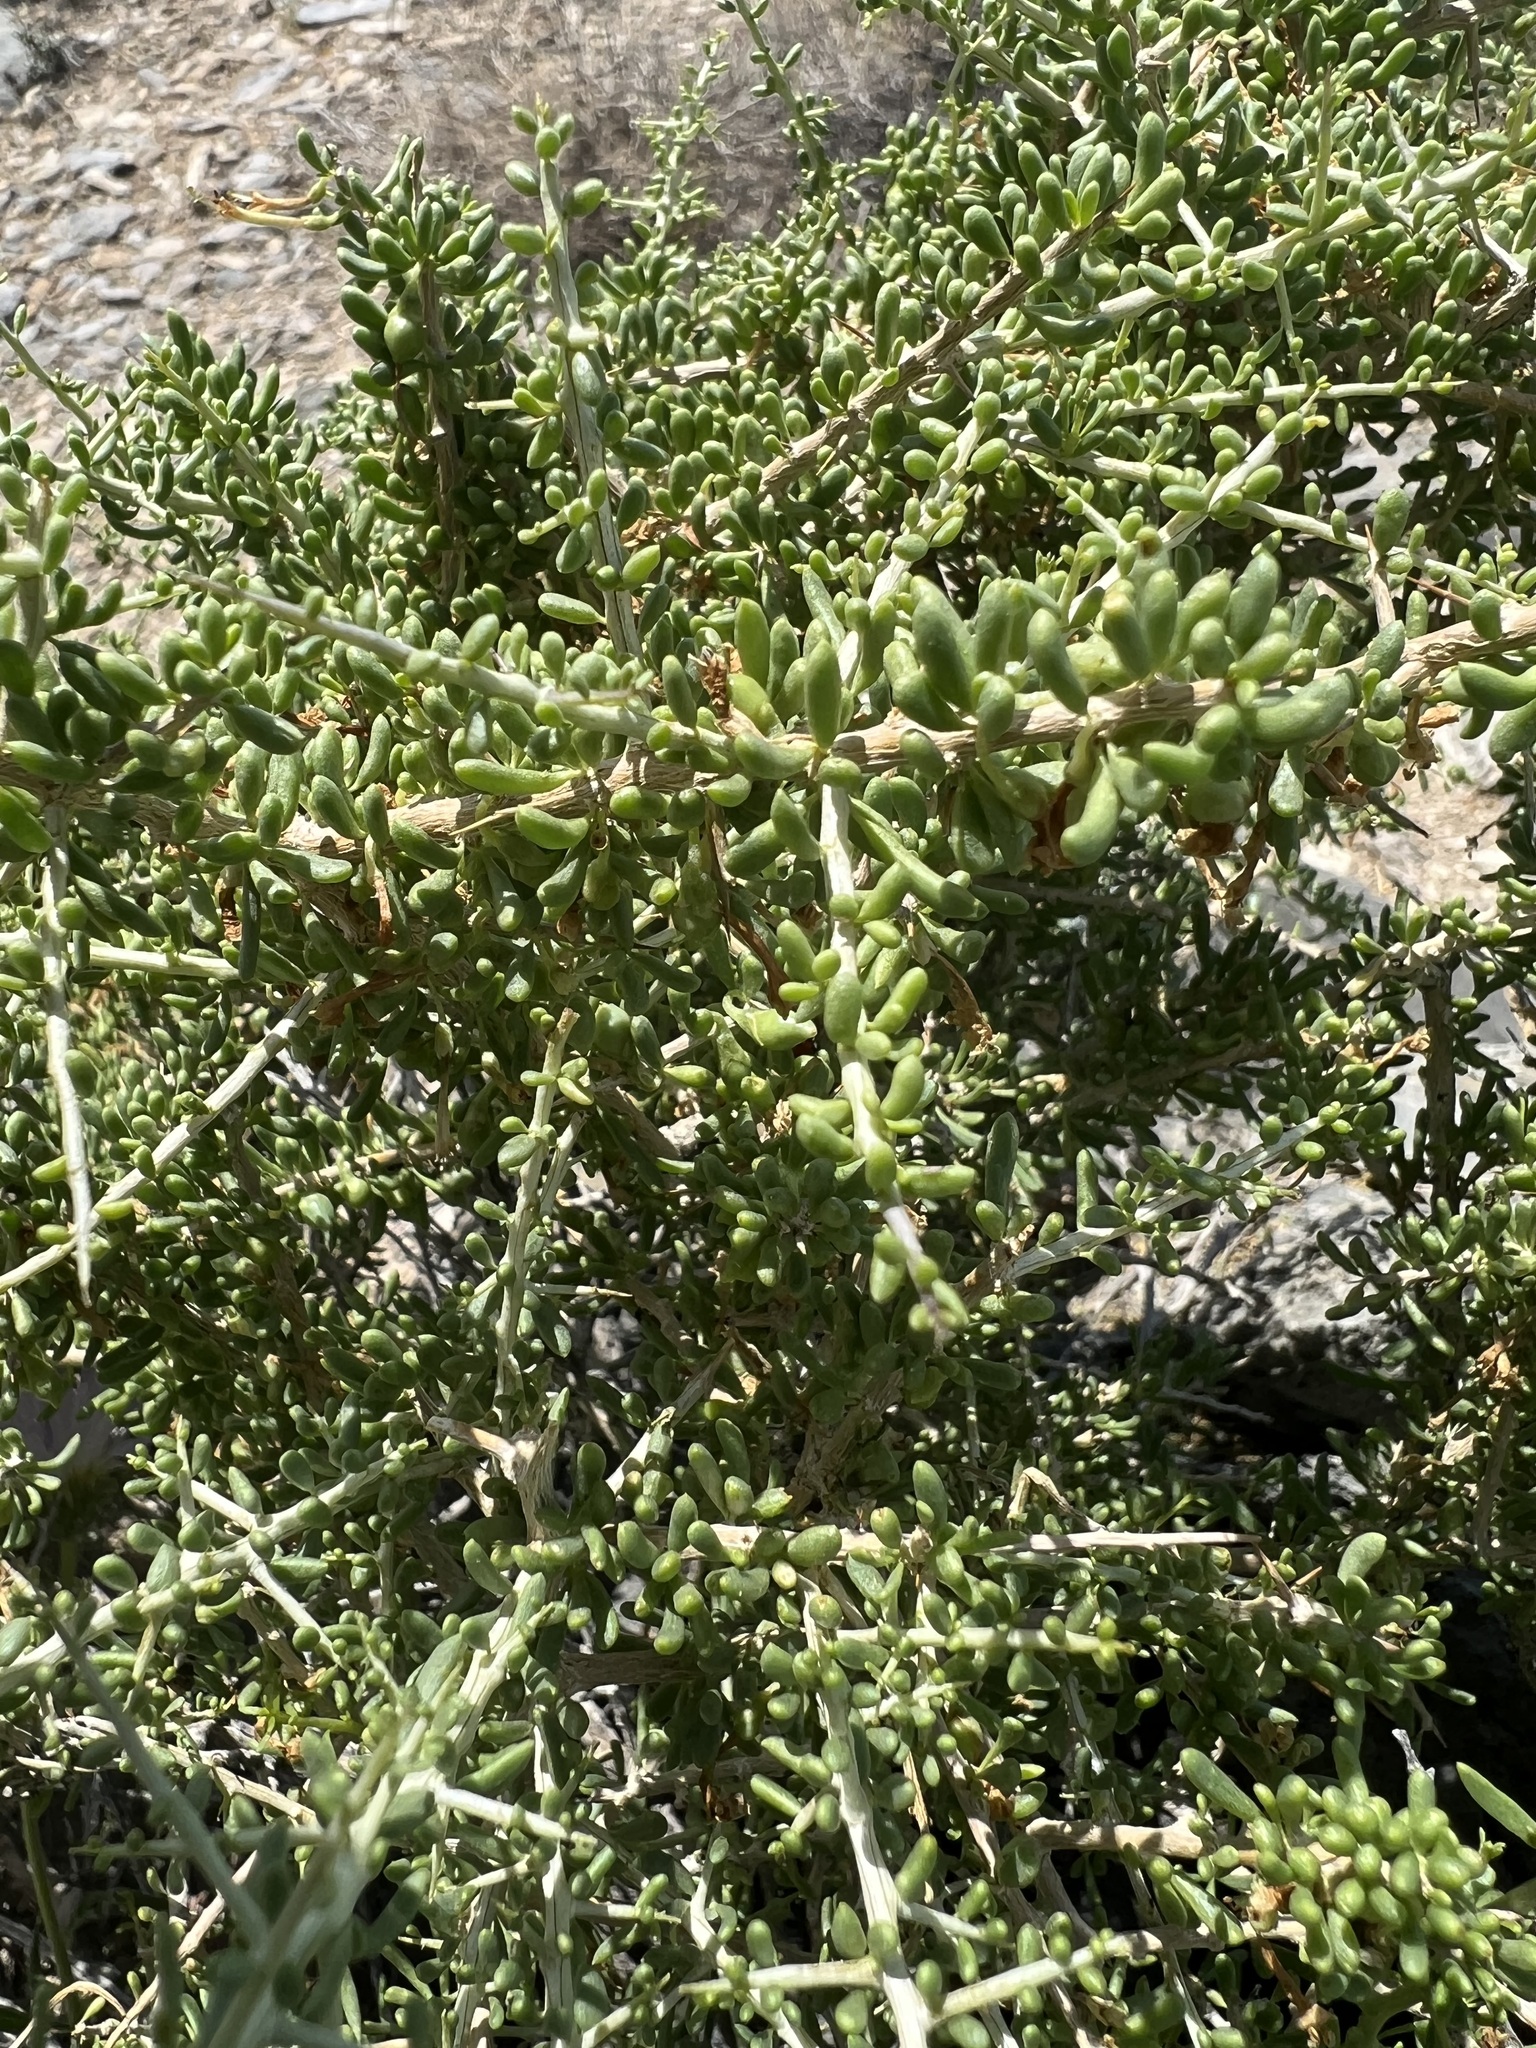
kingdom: Plantae
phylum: Tracheophyta
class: Magnoliopsida
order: Solanales
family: Solanaceae
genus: Lycium
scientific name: Lycium andersonii
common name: Water-jacket
